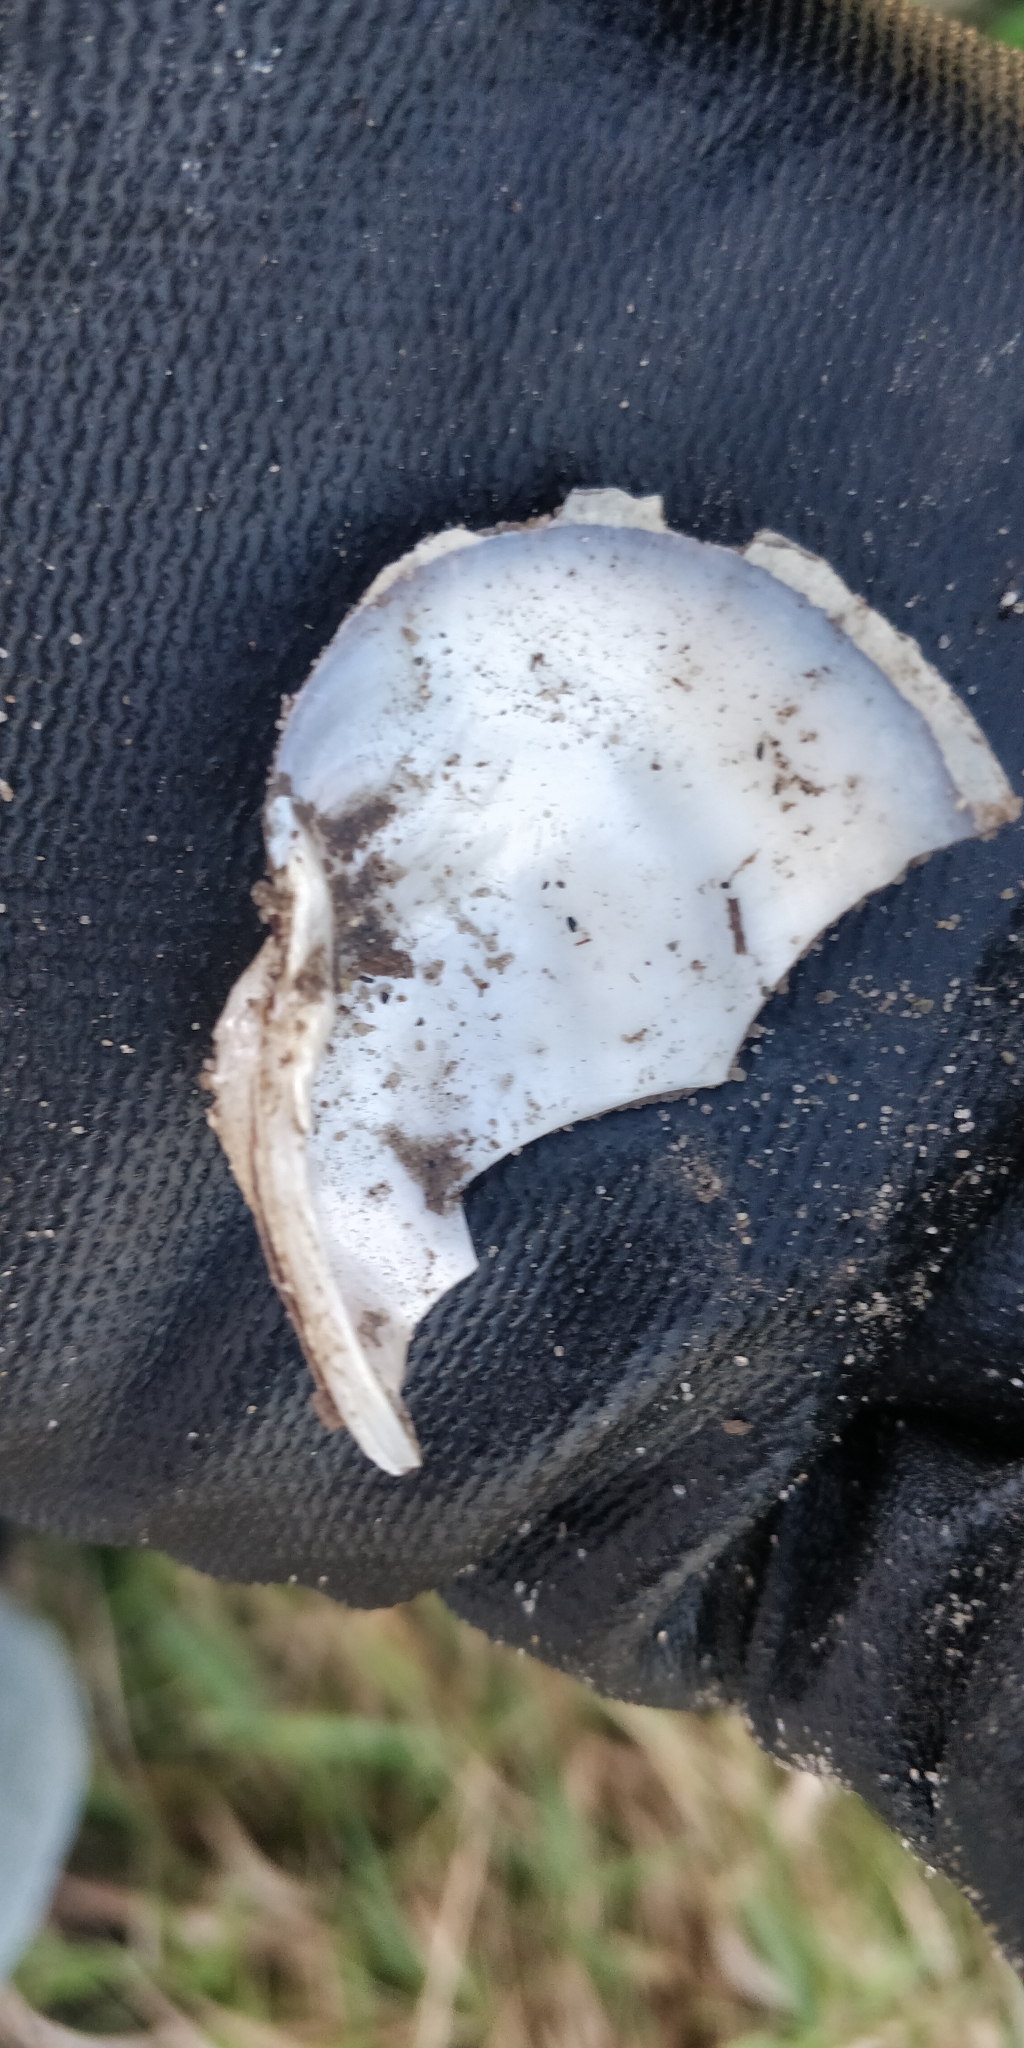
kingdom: Animalia
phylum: Mollusca
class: Bivalvia
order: Unionida
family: Unionidae
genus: Arcidens
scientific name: Arcidens confragosus
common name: Rock pocketbook
